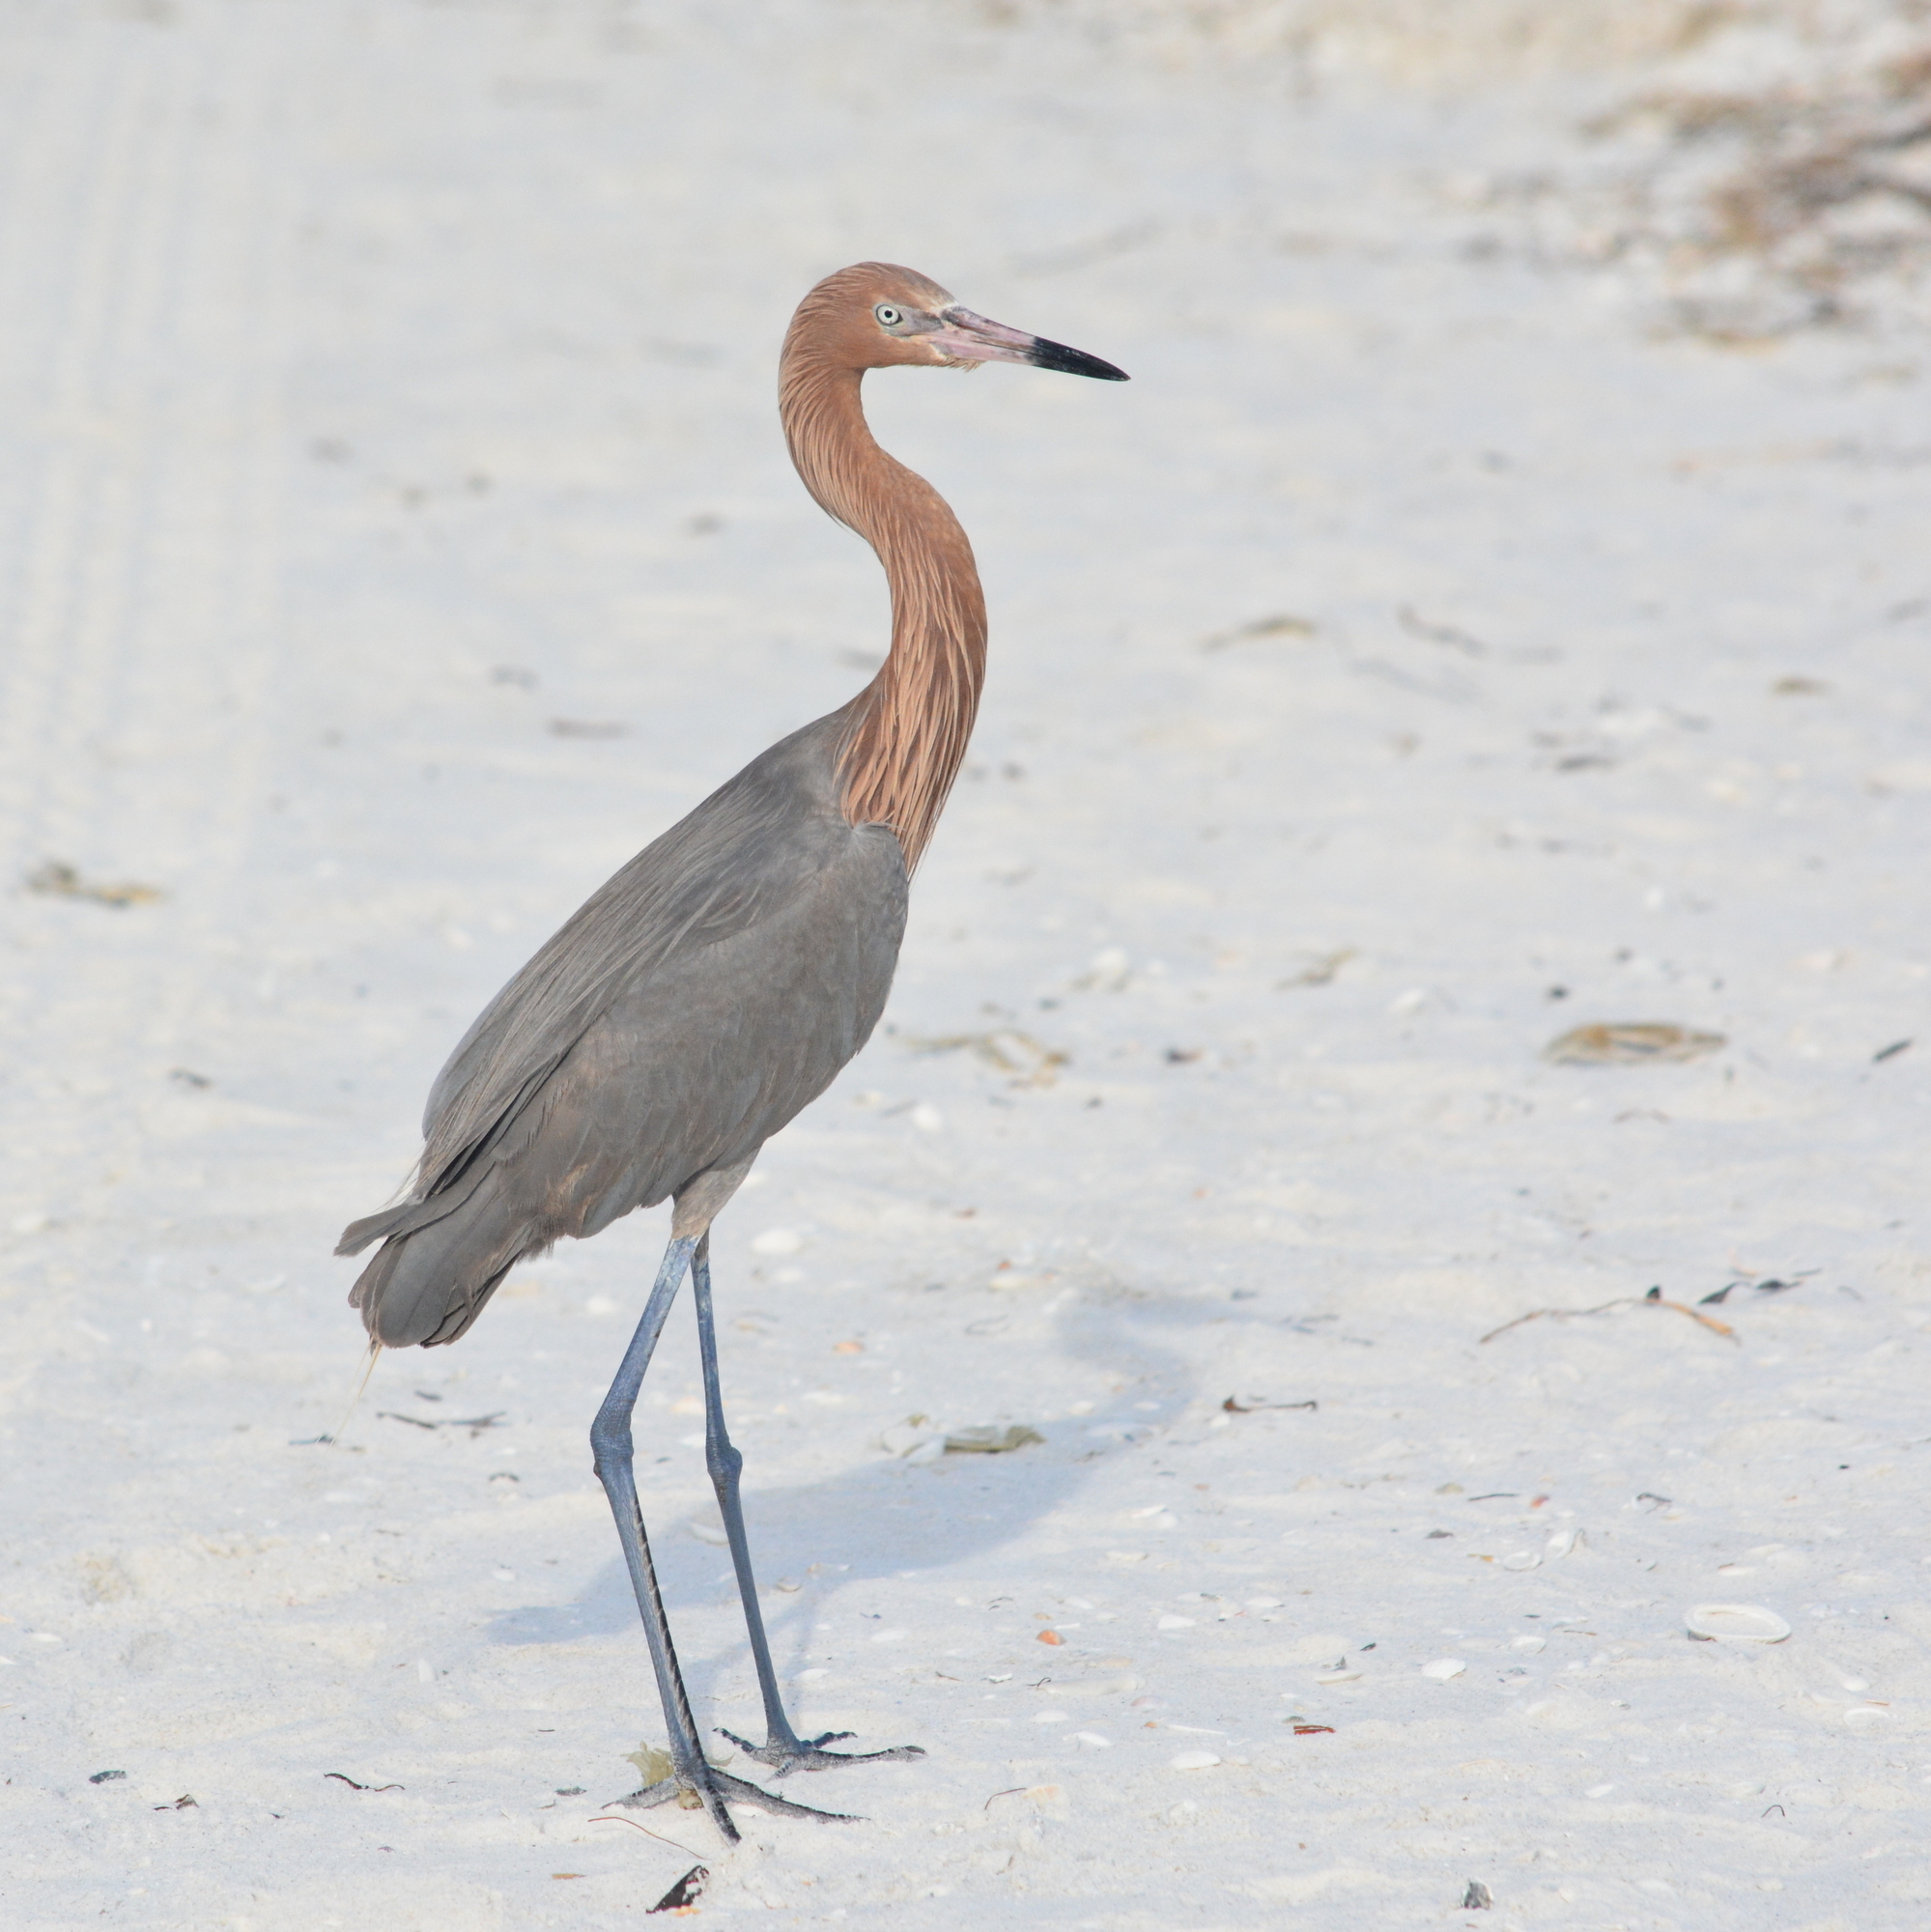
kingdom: Animalia
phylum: Chordata
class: Aves
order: Pelecaniformes
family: Ardeidae
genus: Egretta
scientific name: Egretta rufescens
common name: Reddish egret
